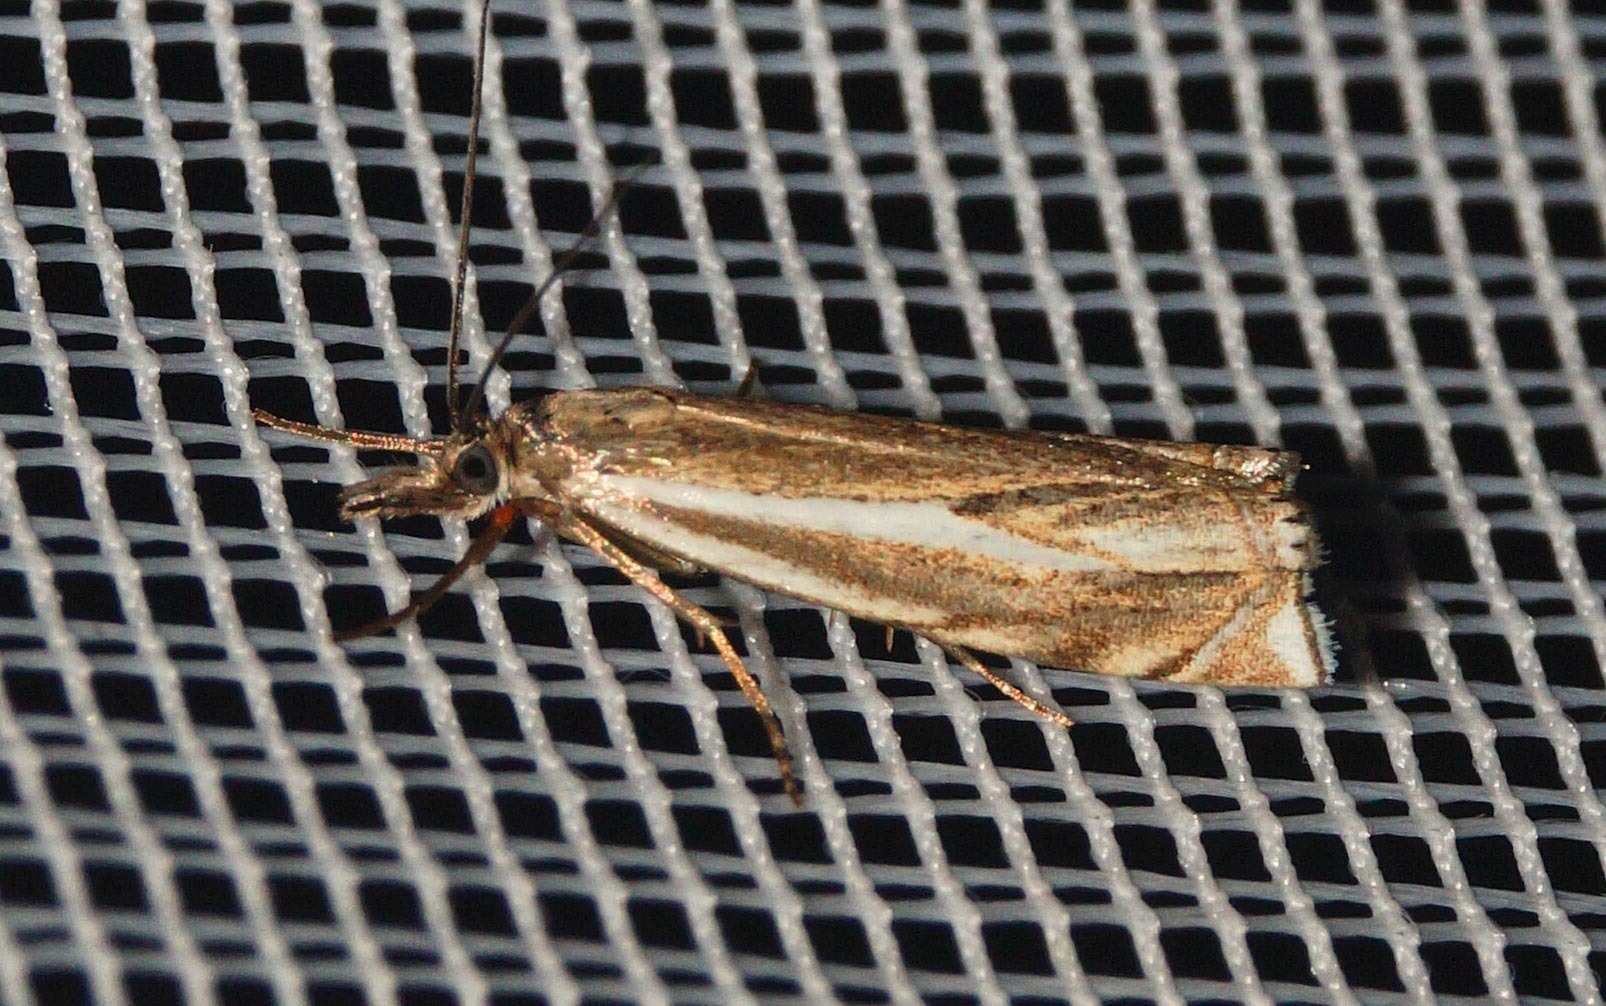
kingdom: Animalia
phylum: Arthropoda
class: Insecta
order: Lepidoptera
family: Crambidae
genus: Crambus
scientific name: Crambus nemorella
